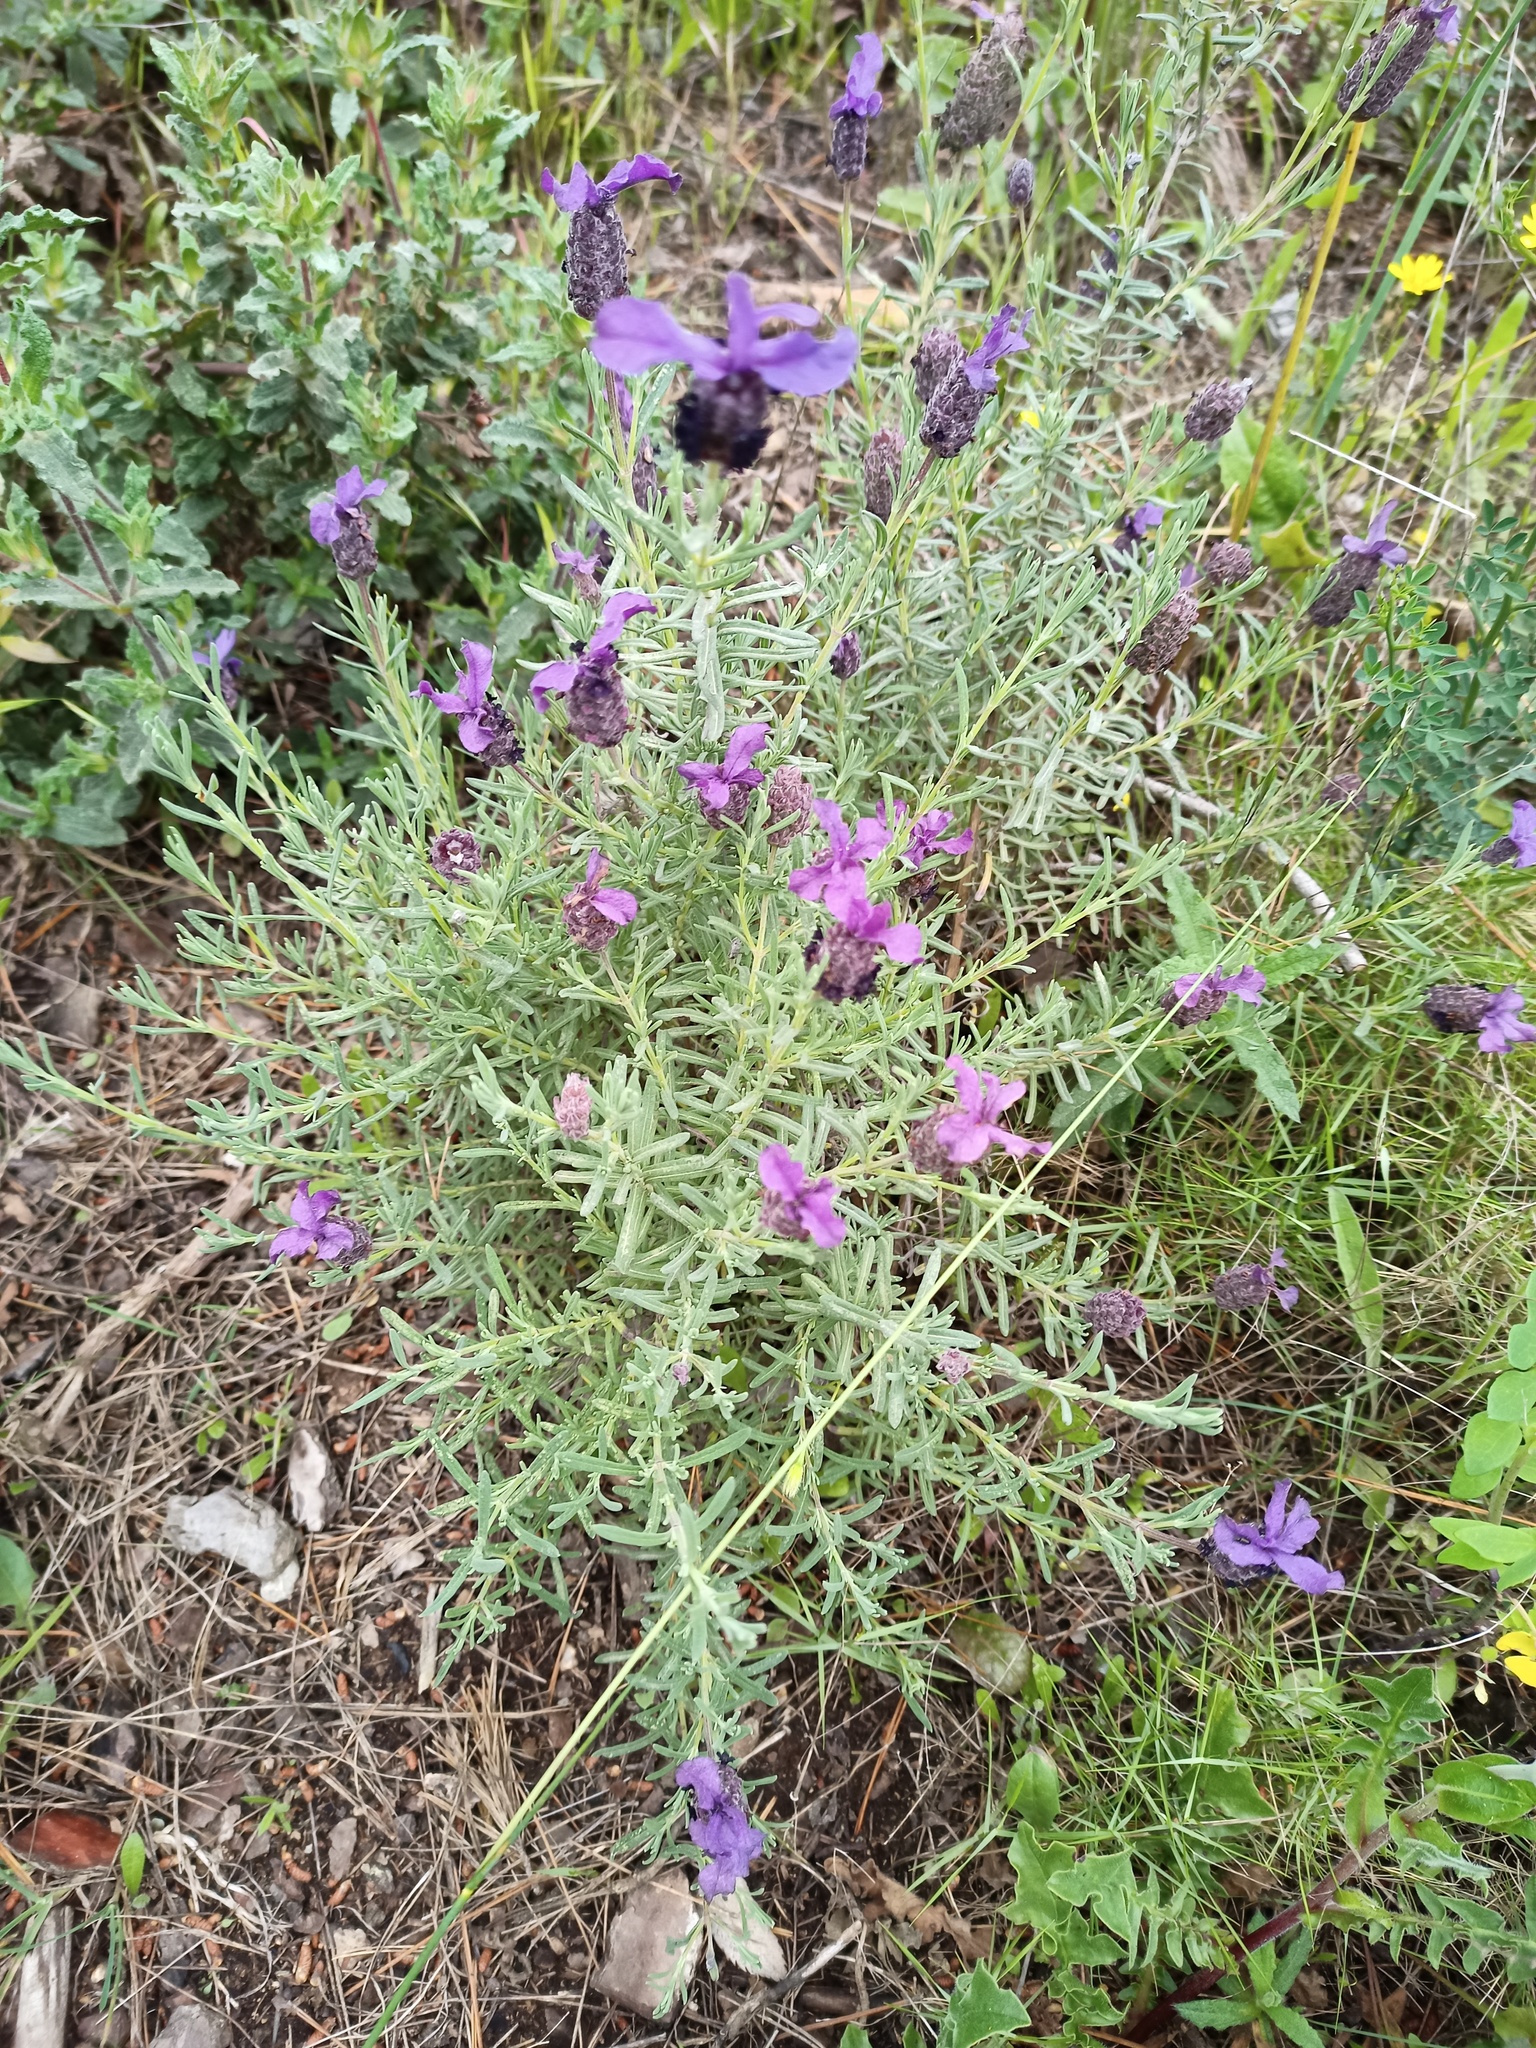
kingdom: Plantae
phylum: Tracheophyta
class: Magnoliopsida
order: Lamiales
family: Lamiaceae
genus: Lavandula
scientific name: Lavandula stoechas
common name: French lavender
